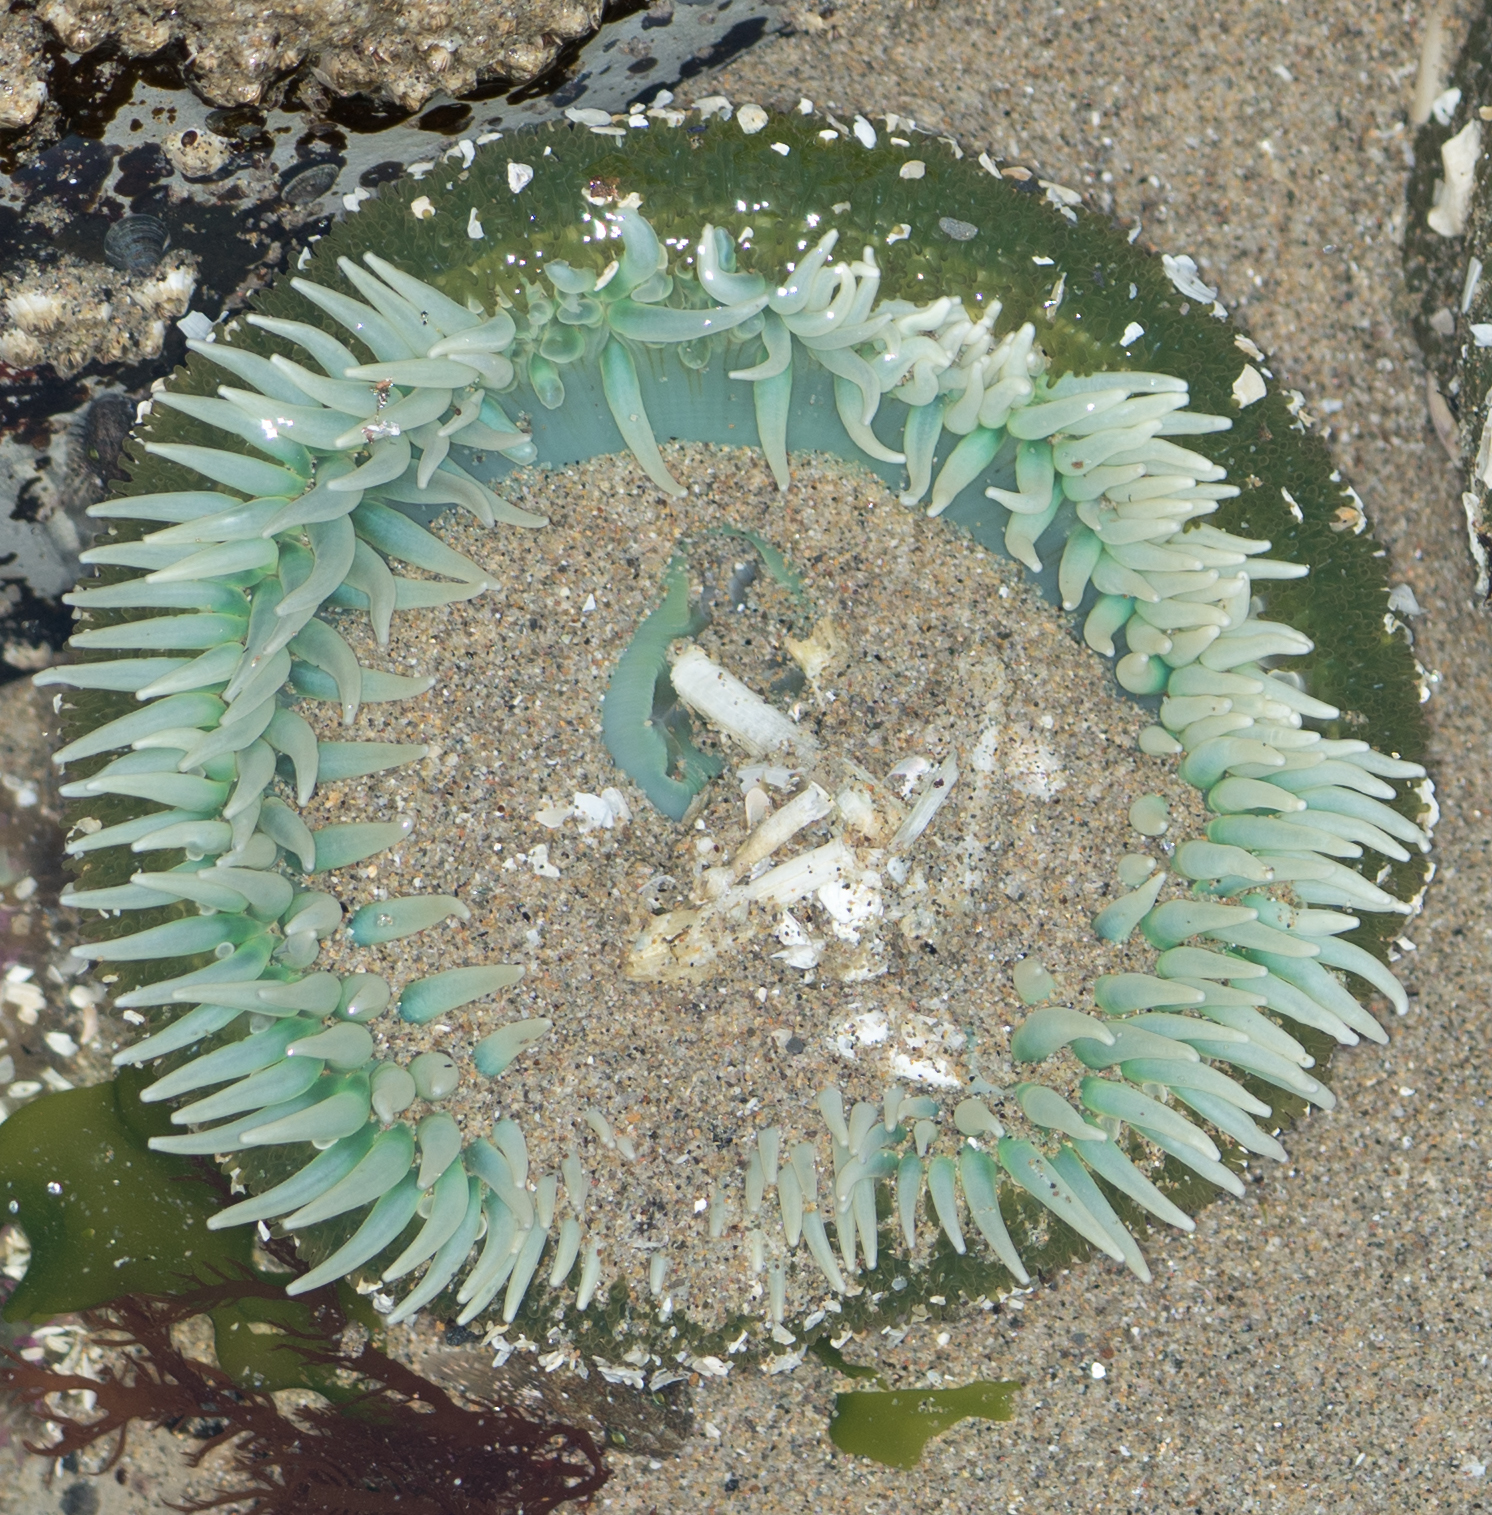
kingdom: Animalia
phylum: Cnidaria
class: Anthozoa
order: Actiniaria
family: Actiniidae
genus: Anthopleura
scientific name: Anthopleura xanthogrammica
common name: Giant green anemone
